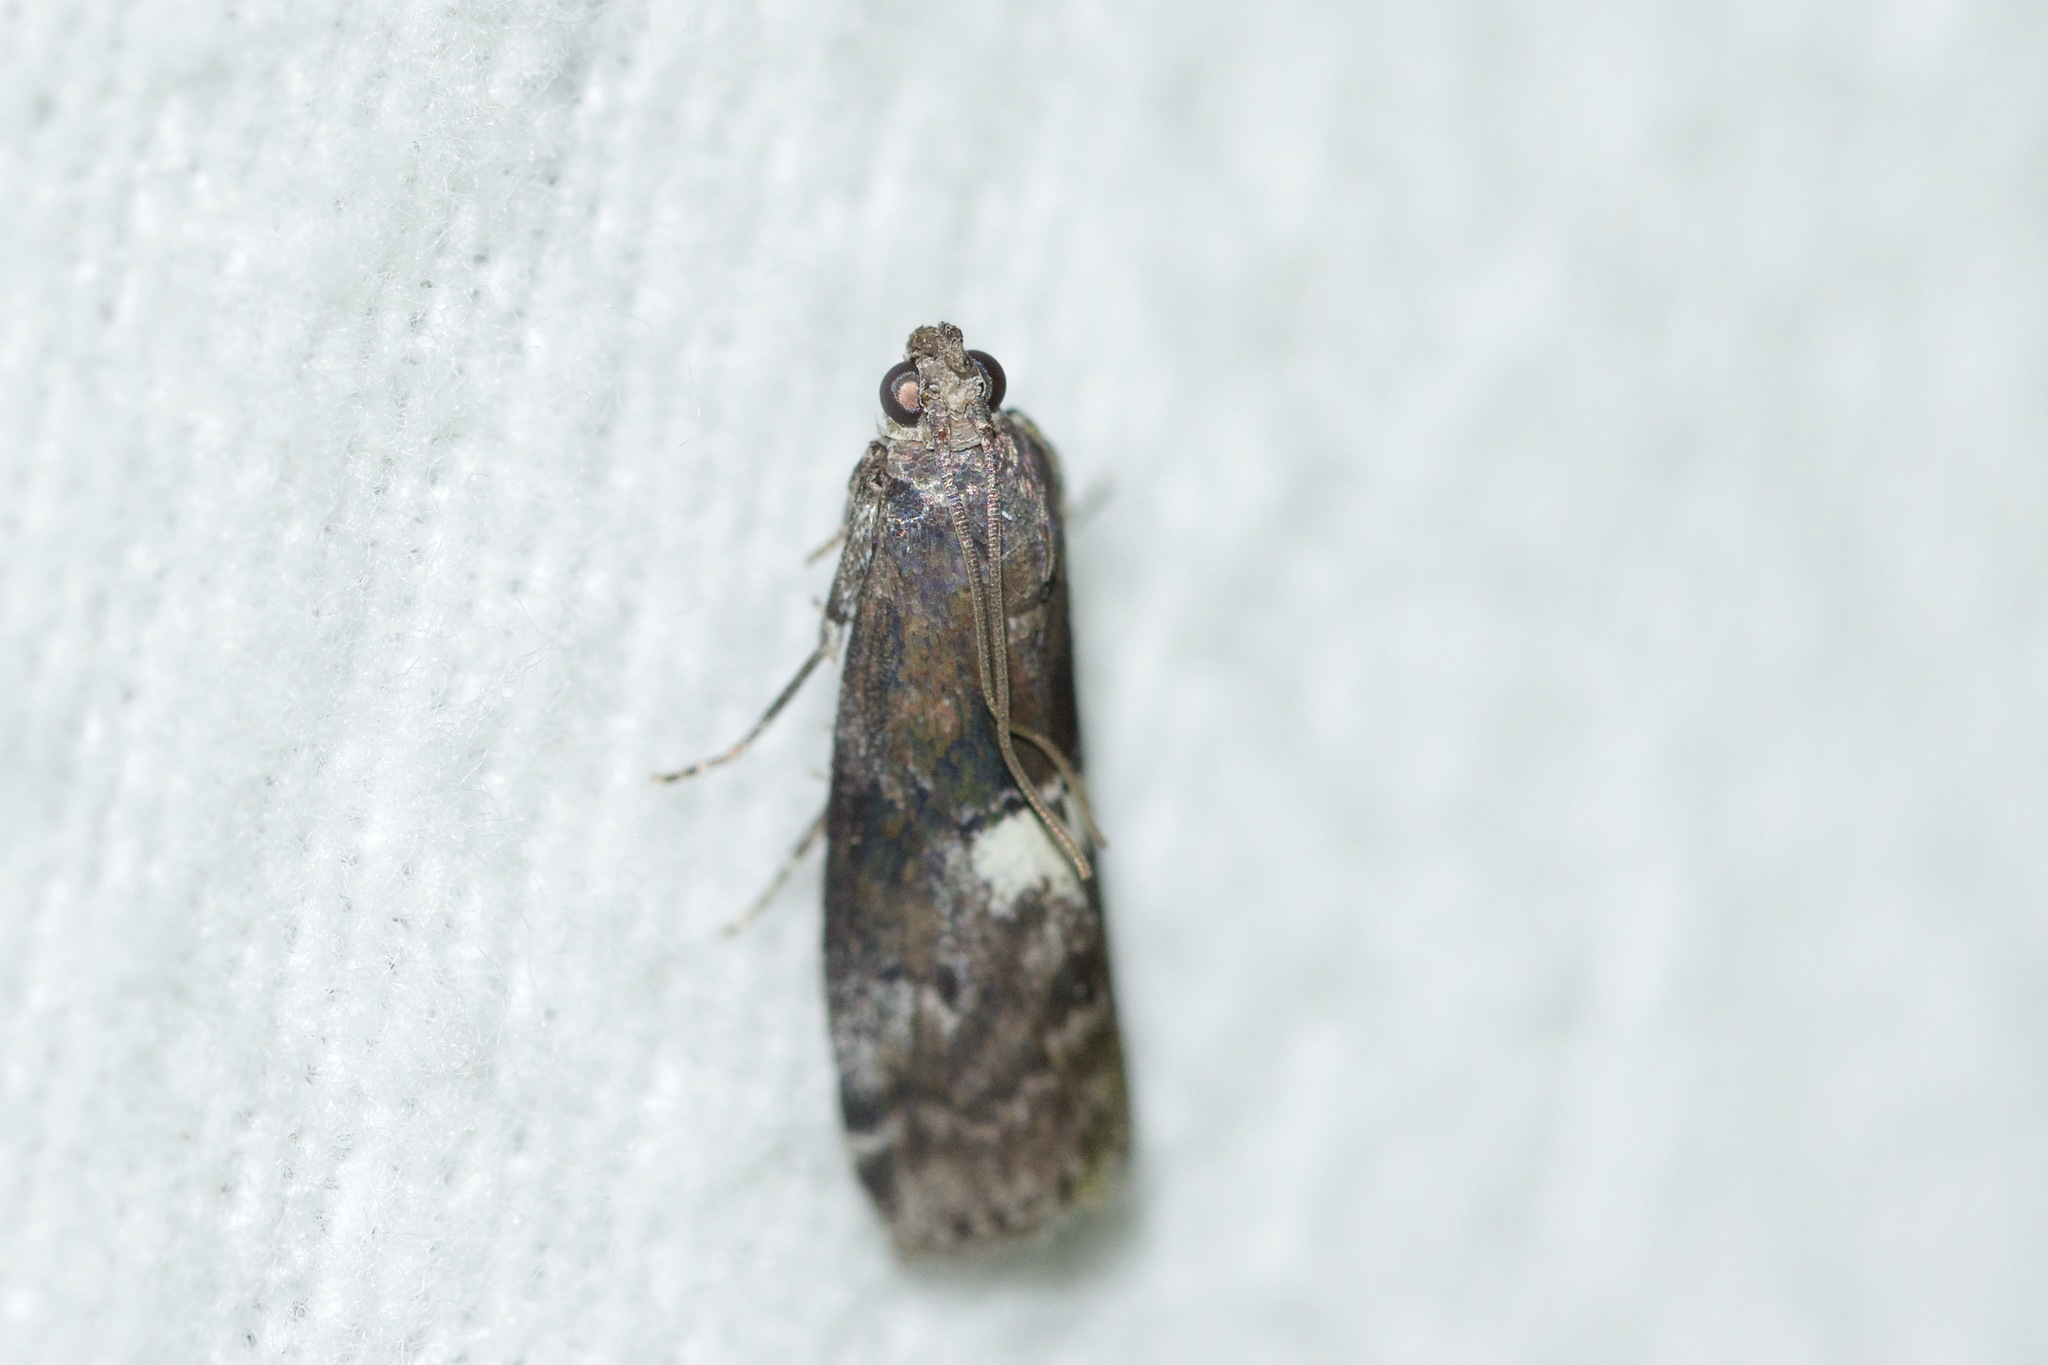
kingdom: Animalia
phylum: Arthropoda
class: Insecta
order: Lepidoptera
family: Pyralidae
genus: Salebriaria
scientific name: Salebriaria engeli
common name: Engel's salebriaria moth
